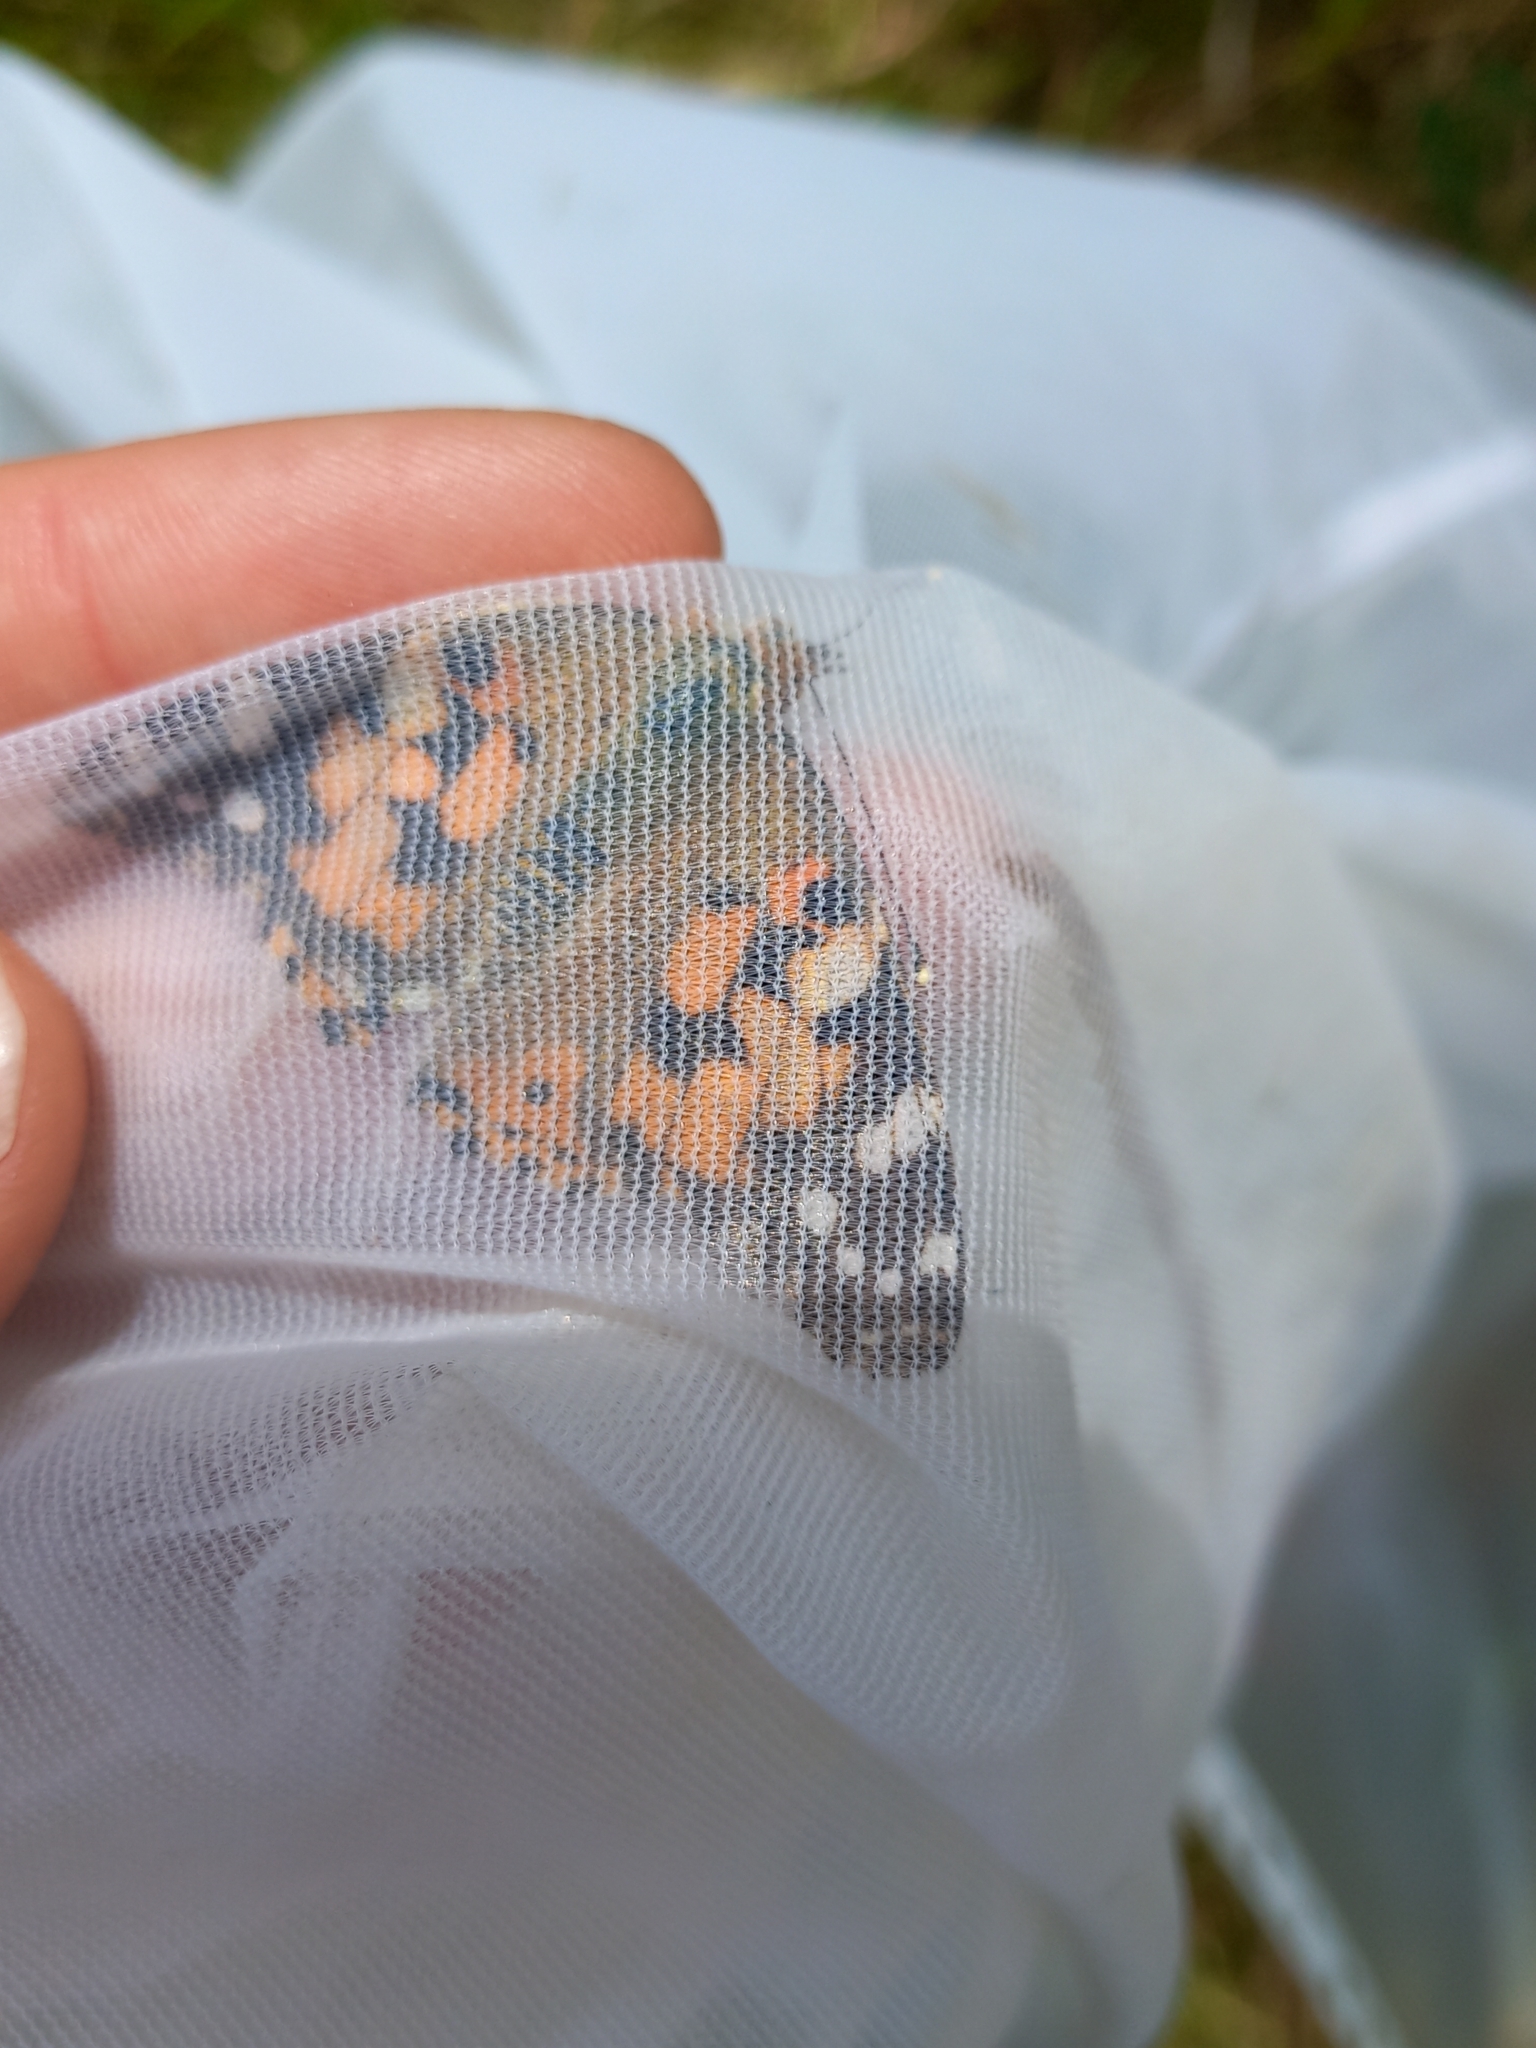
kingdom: Animalia
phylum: Arthropoda
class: Insecta
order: Lepidoptera
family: Nymphalidae
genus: Vanessa
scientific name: Vanessa cardui
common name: Painted lady
